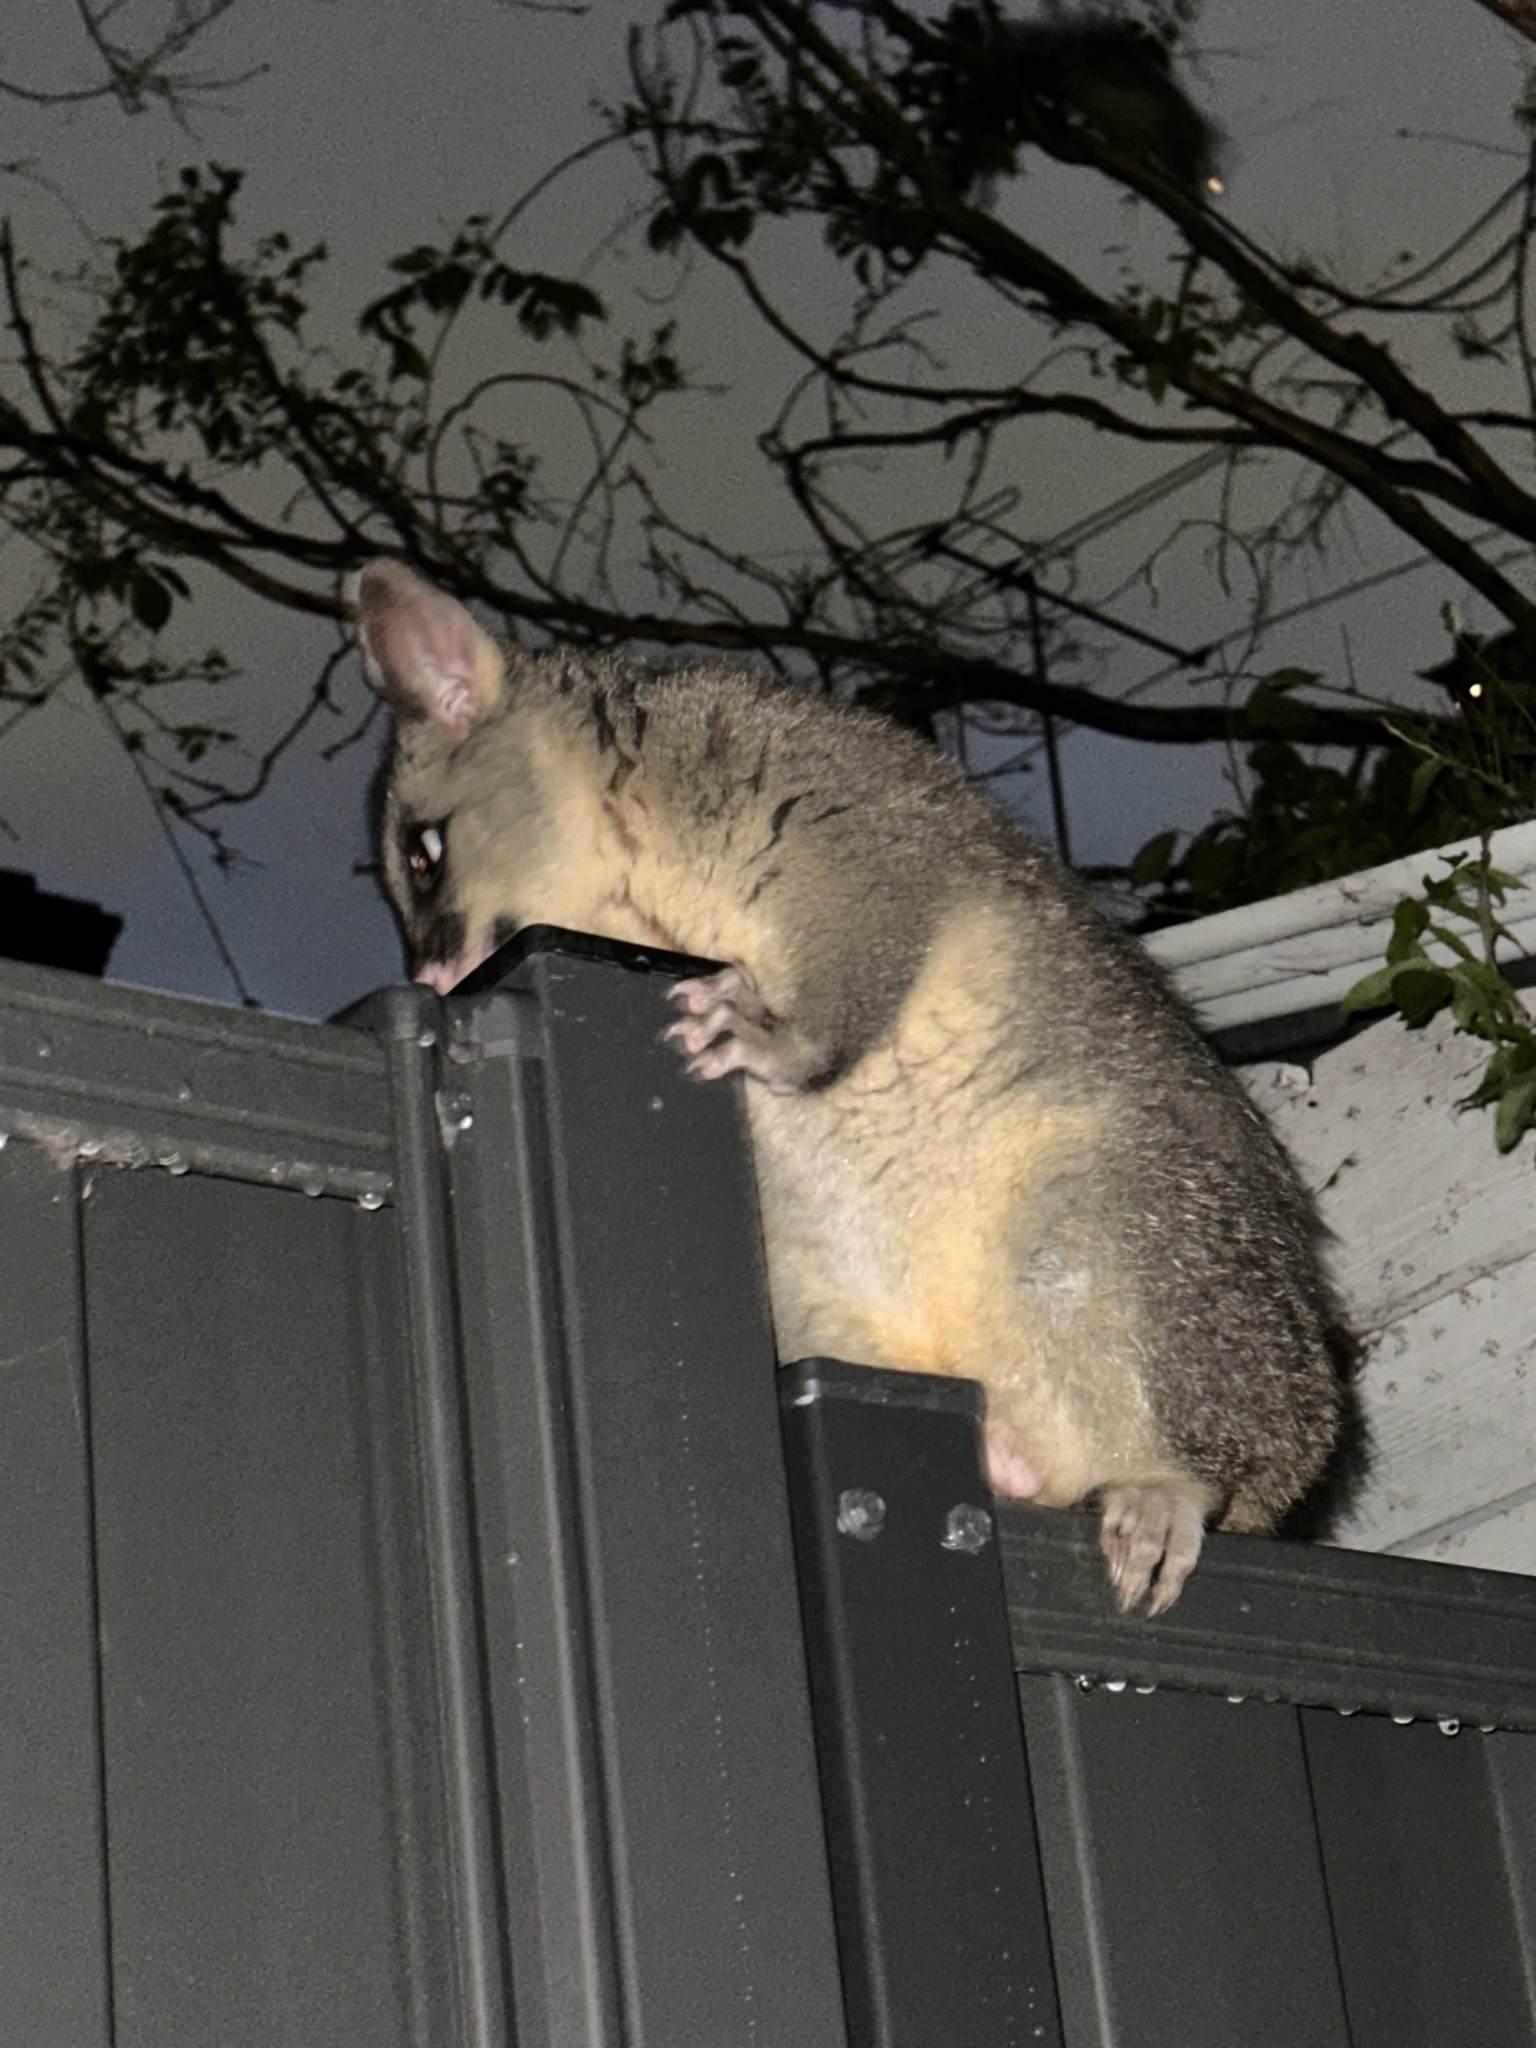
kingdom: Animalia
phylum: Chordata
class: Mammalia
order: Diprotodontia
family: Phalangeridae
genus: Trichosurus
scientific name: Trichosurus vulpecula
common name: Common brushtail
